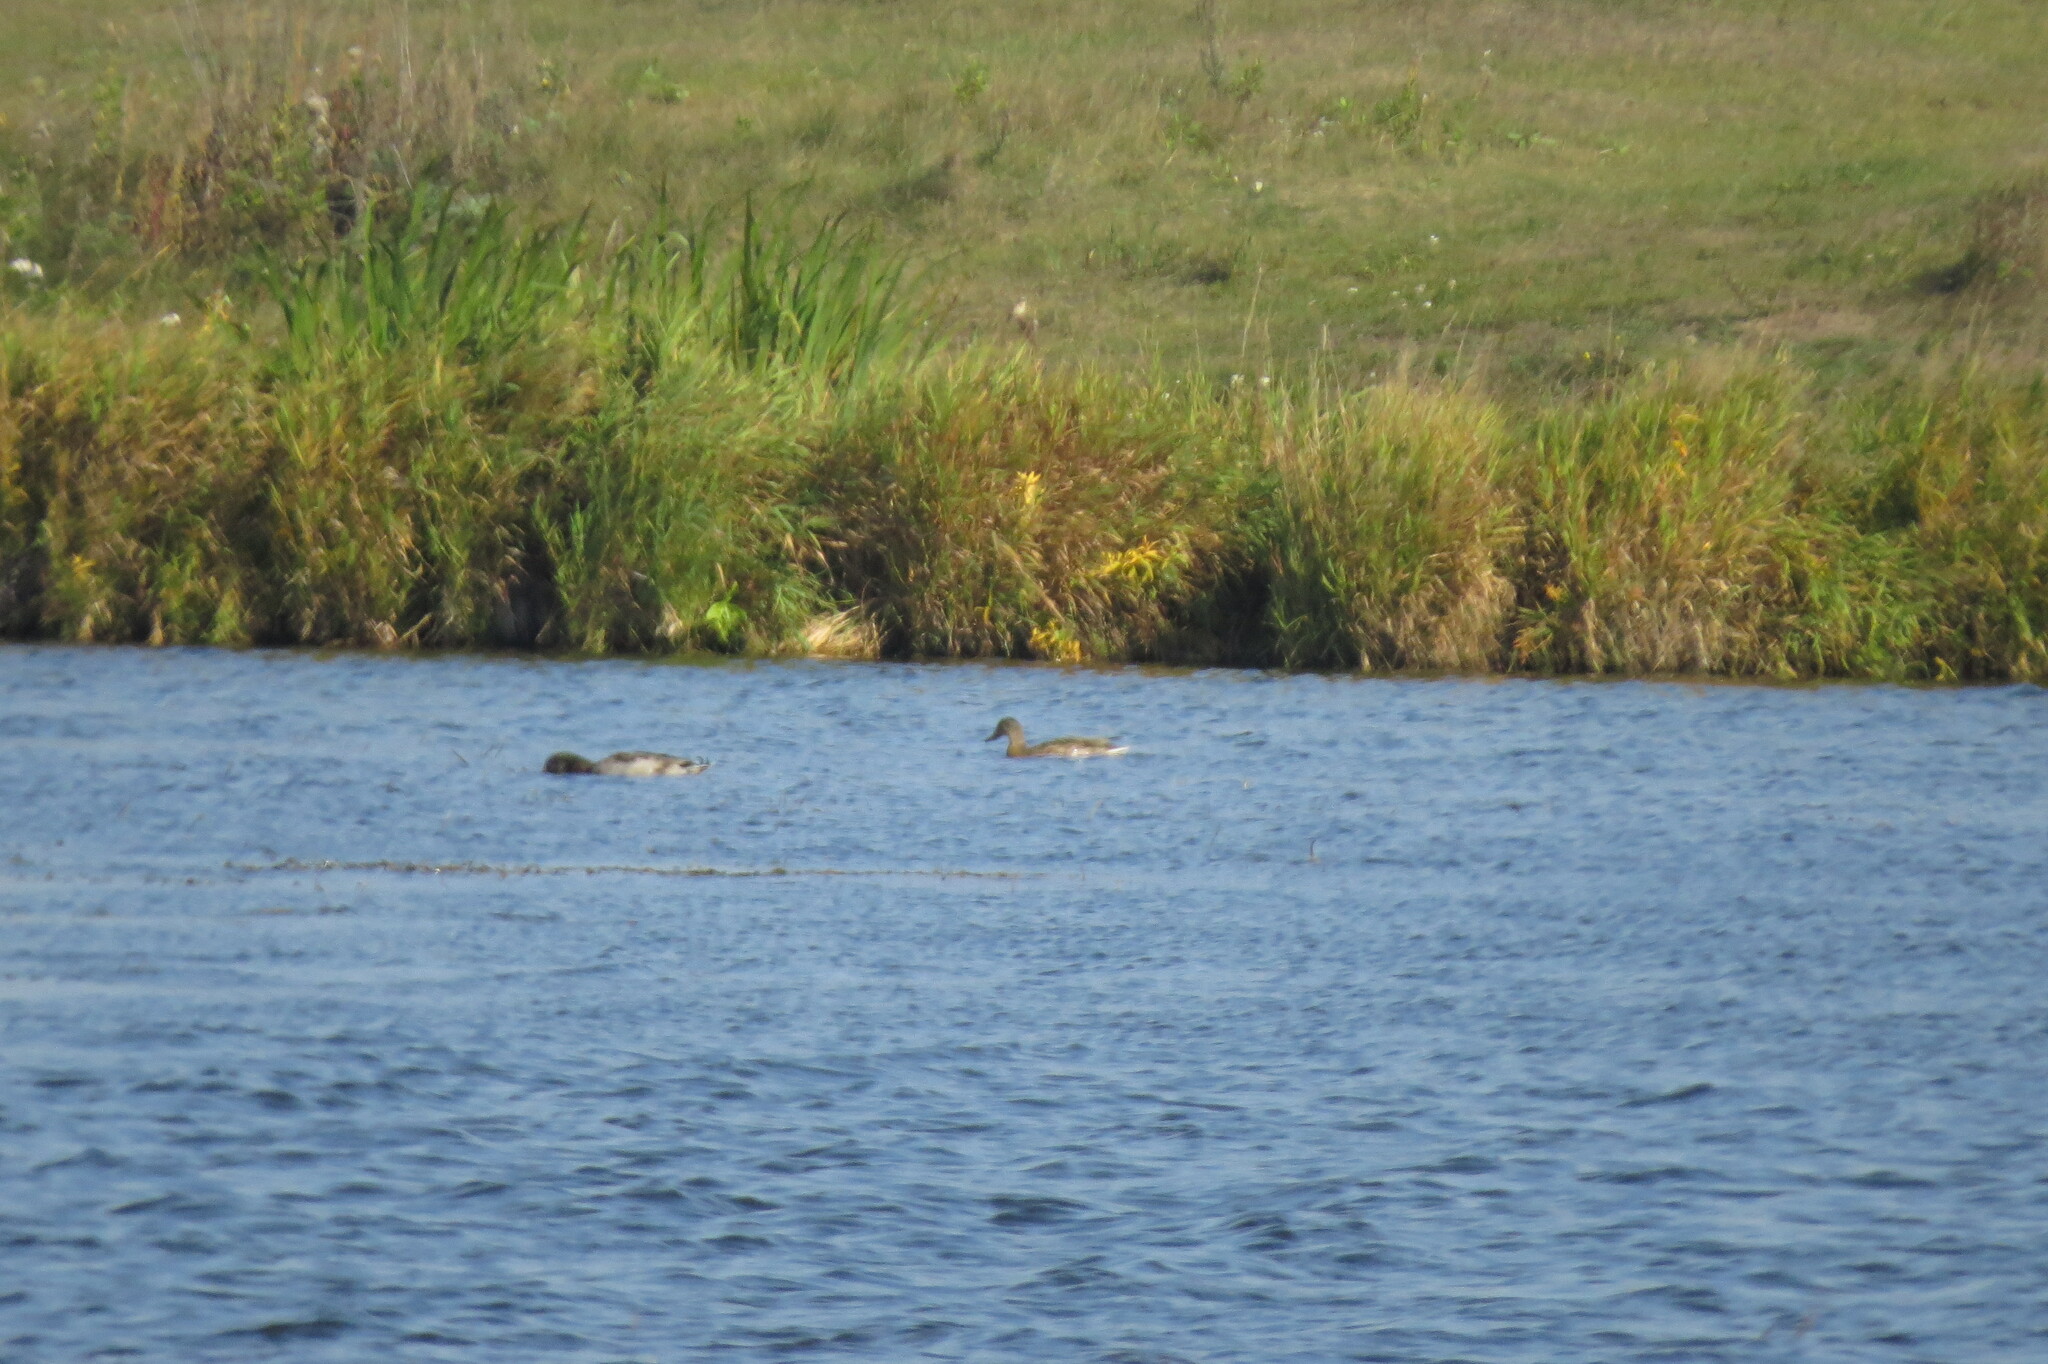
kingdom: Animalia
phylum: Chordata
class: Aves
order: Anseriformes
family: Anatidae
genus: Anas
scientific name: Anas platyrhynchos
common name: Mallard
